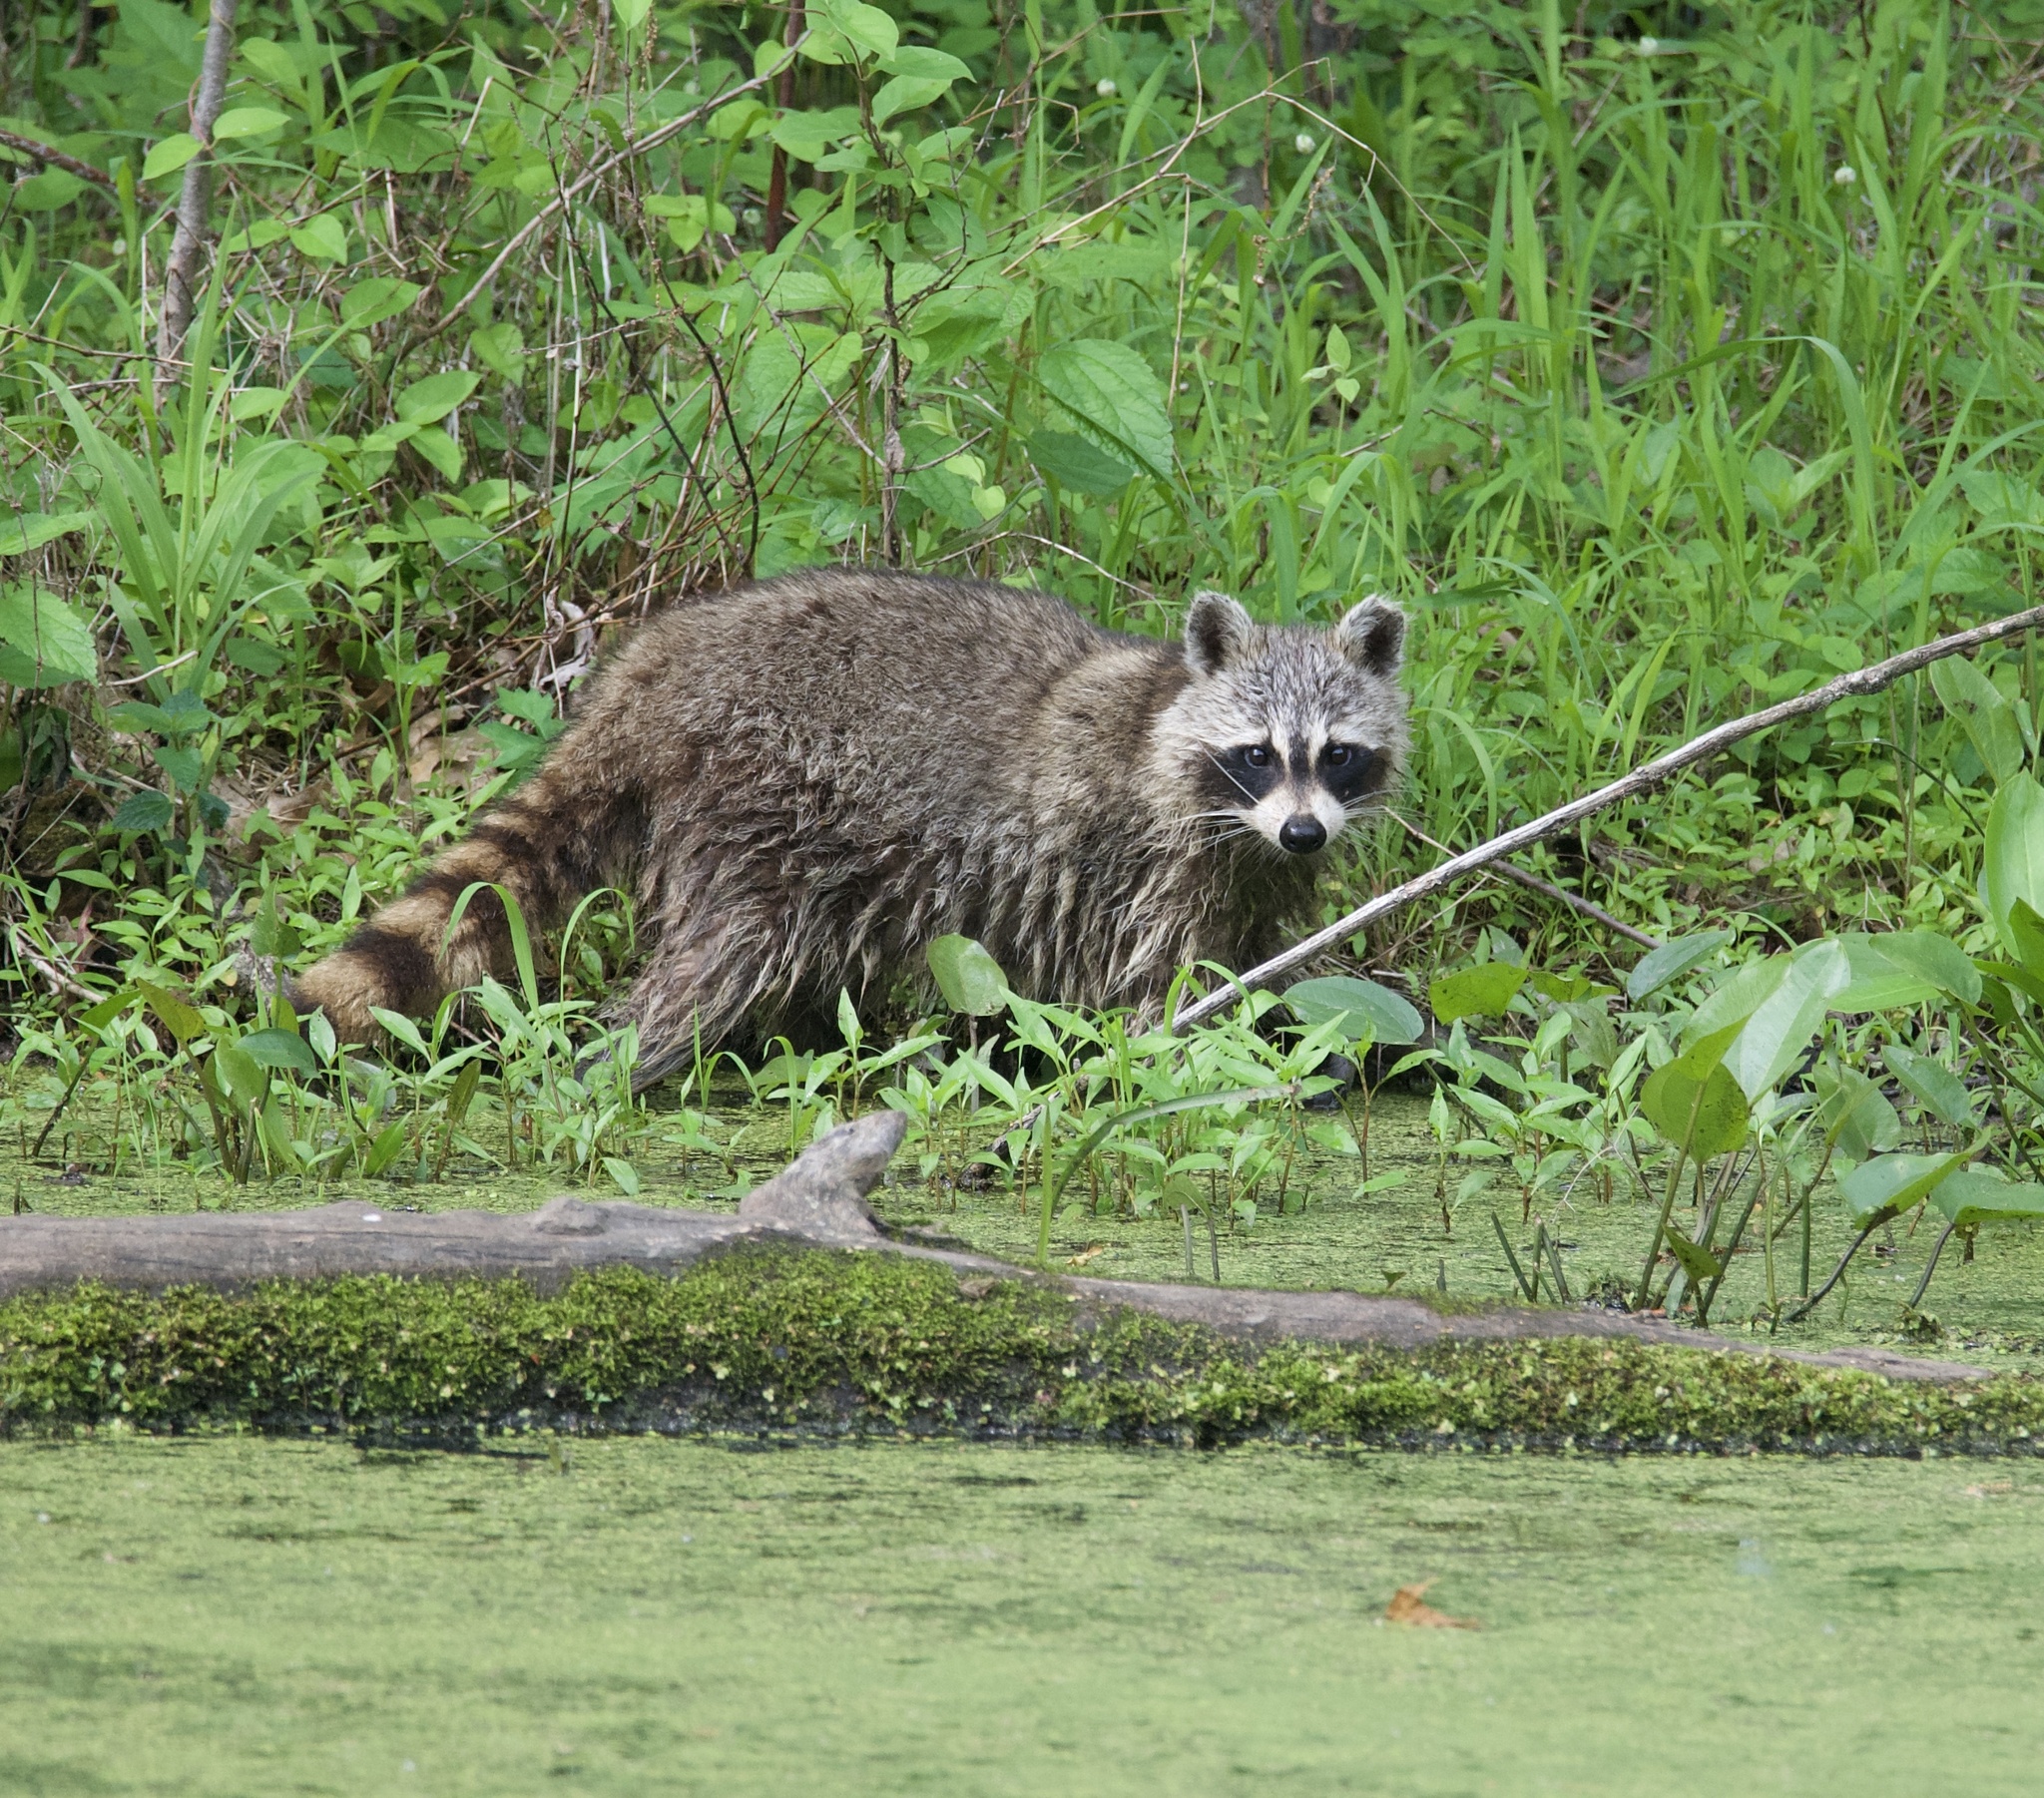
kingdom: Animalia
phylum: Chordata
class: Mammalia
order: Carnivora
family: Procyonidae
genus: Procyon
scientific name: Procyon lotor
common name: Raccoon
